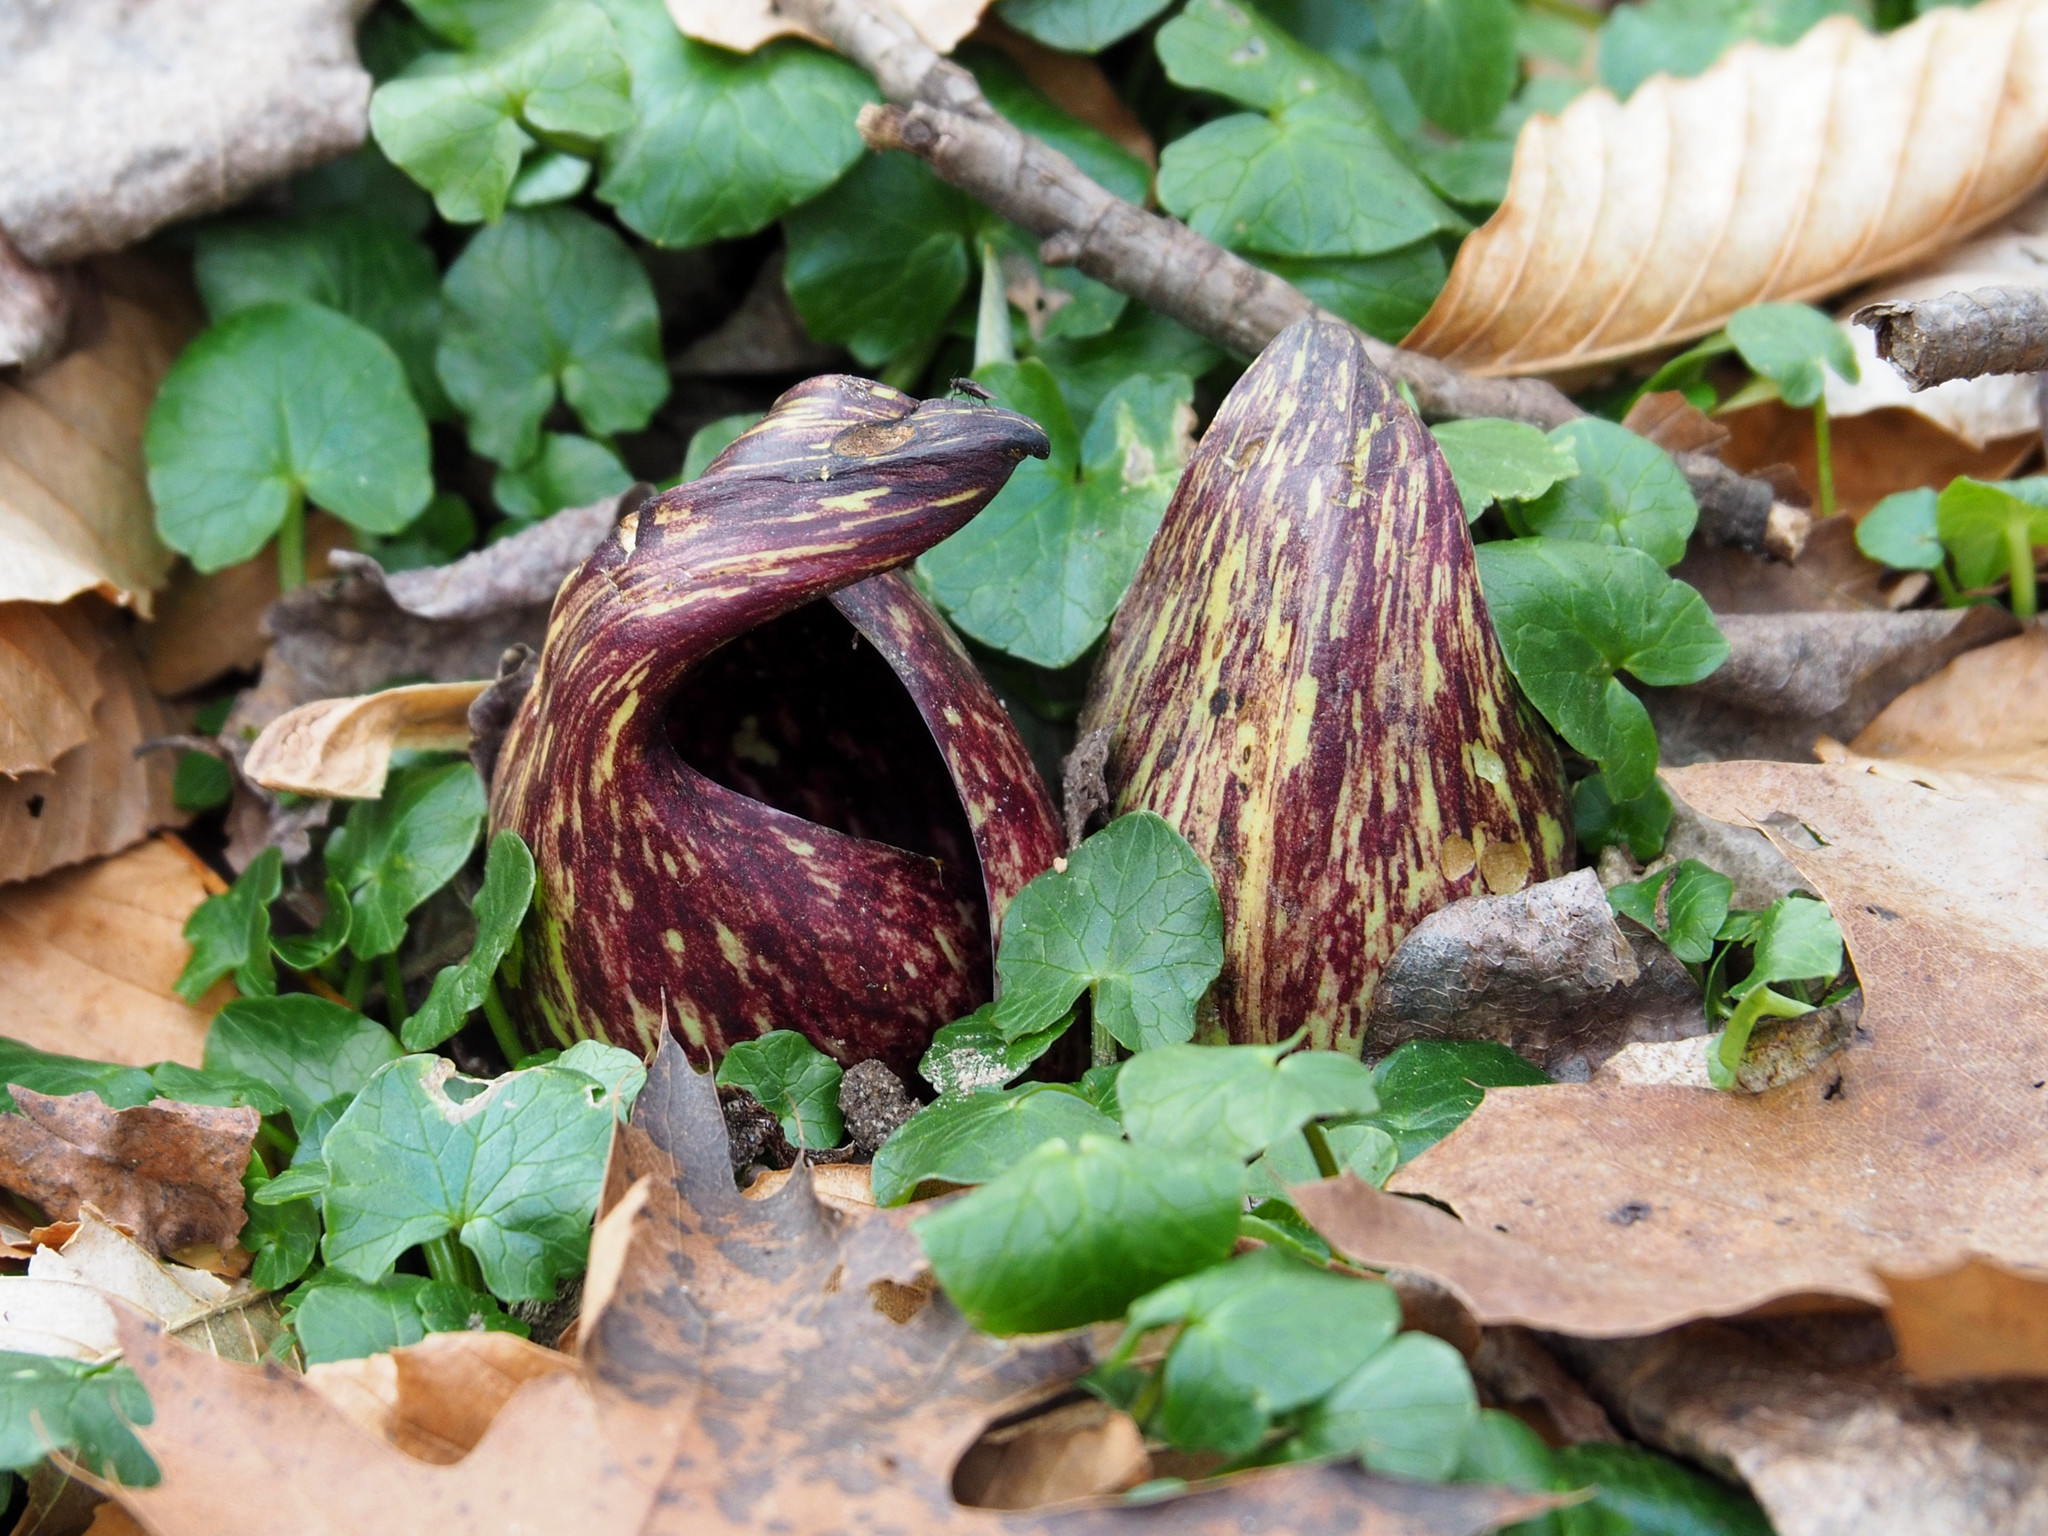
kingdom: Plantae
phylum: Tracheophyta
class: Liliopsida
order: Alismatales
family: Araceae
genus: Symplocarpus
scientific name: Symplocarpus foetidus
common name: Eastern skunk cabbage
